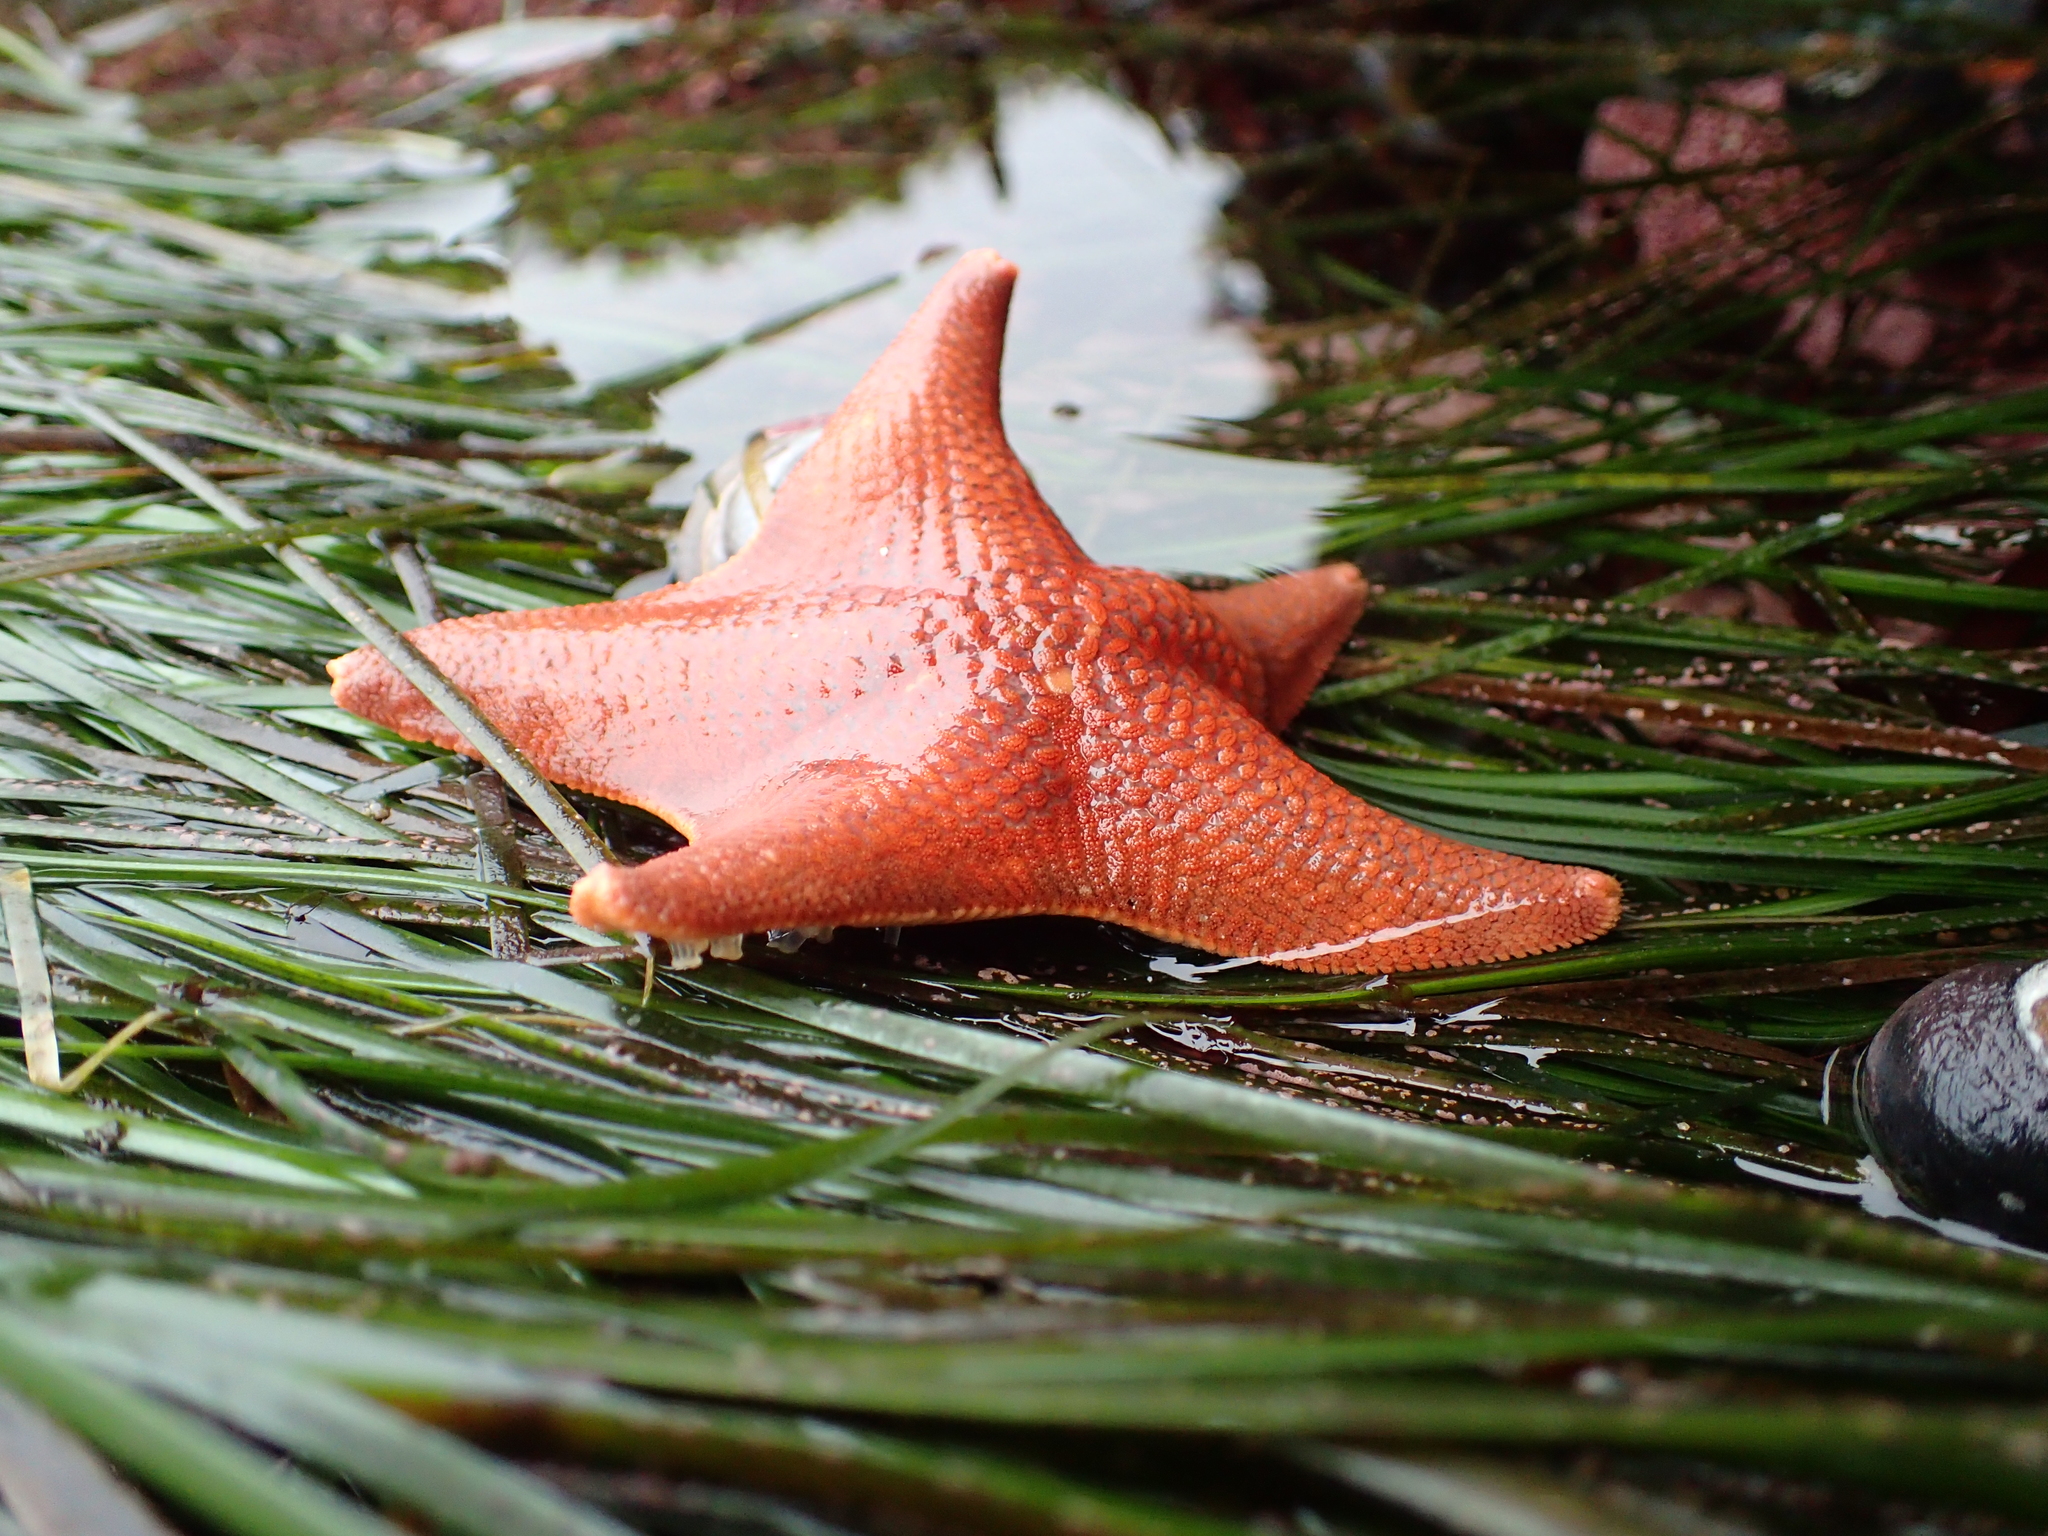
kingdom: Animalia
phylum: Echinodermata
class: Asteroidea
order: Valvatida
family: Asterinidae
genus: Patiria
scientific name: Patiria miniata
